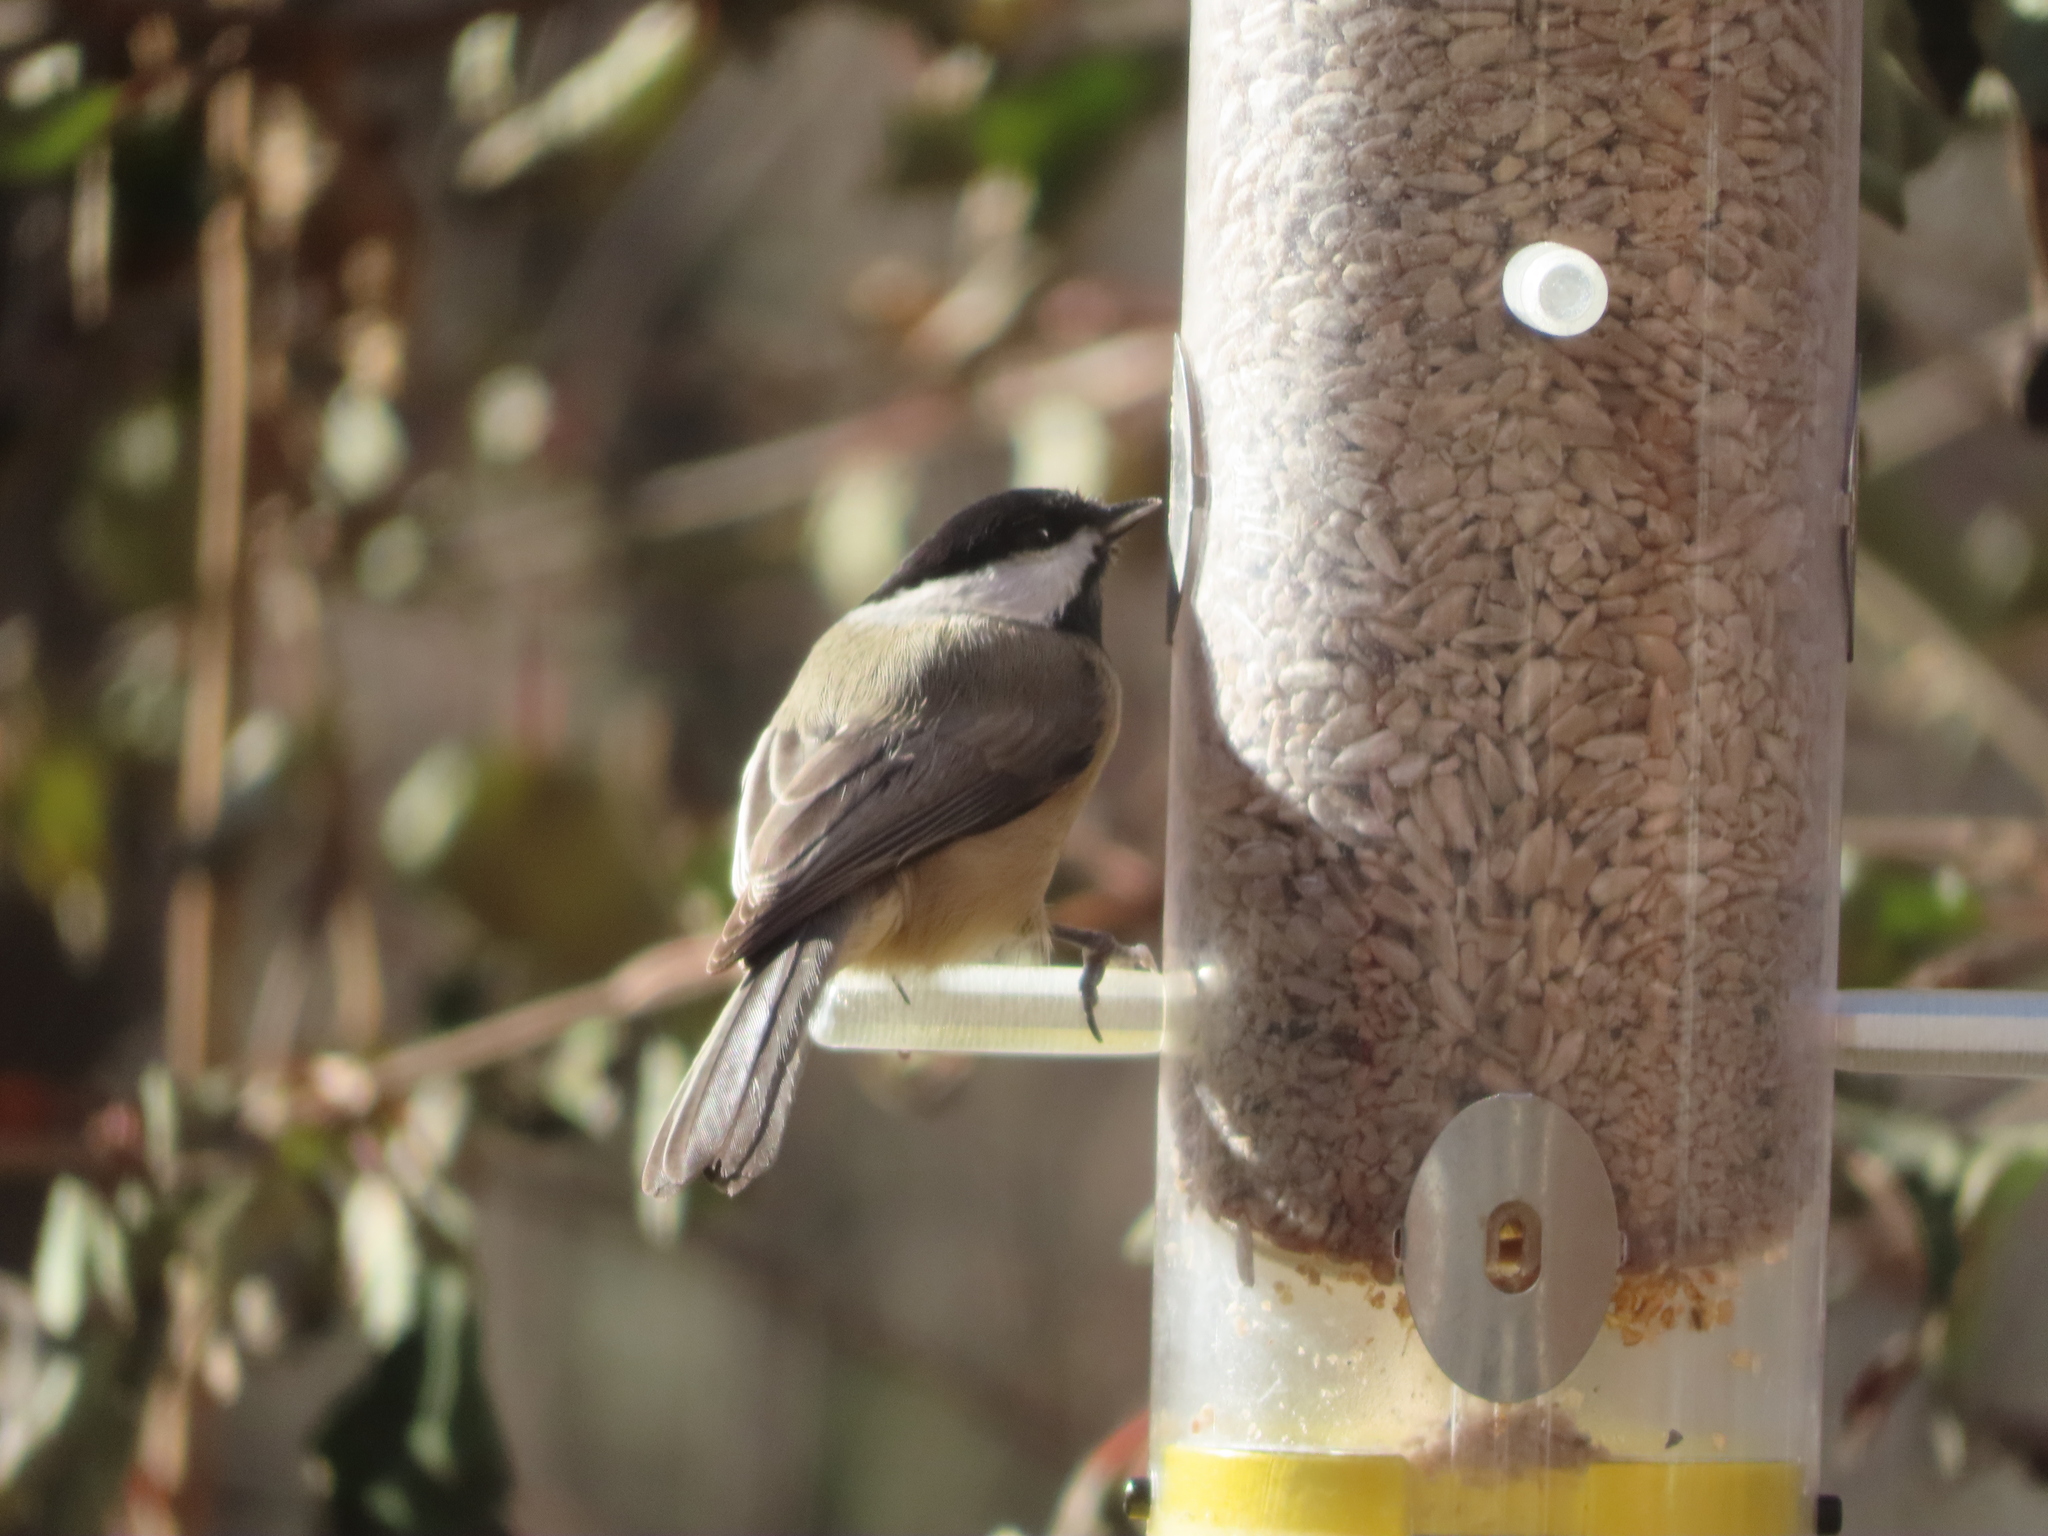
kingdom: Animalia
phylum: Chordata
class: Aves
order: Passeriformes
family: Paridae
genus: Poecile
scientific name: Poecile carolinensis
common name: Carolina chickadee
